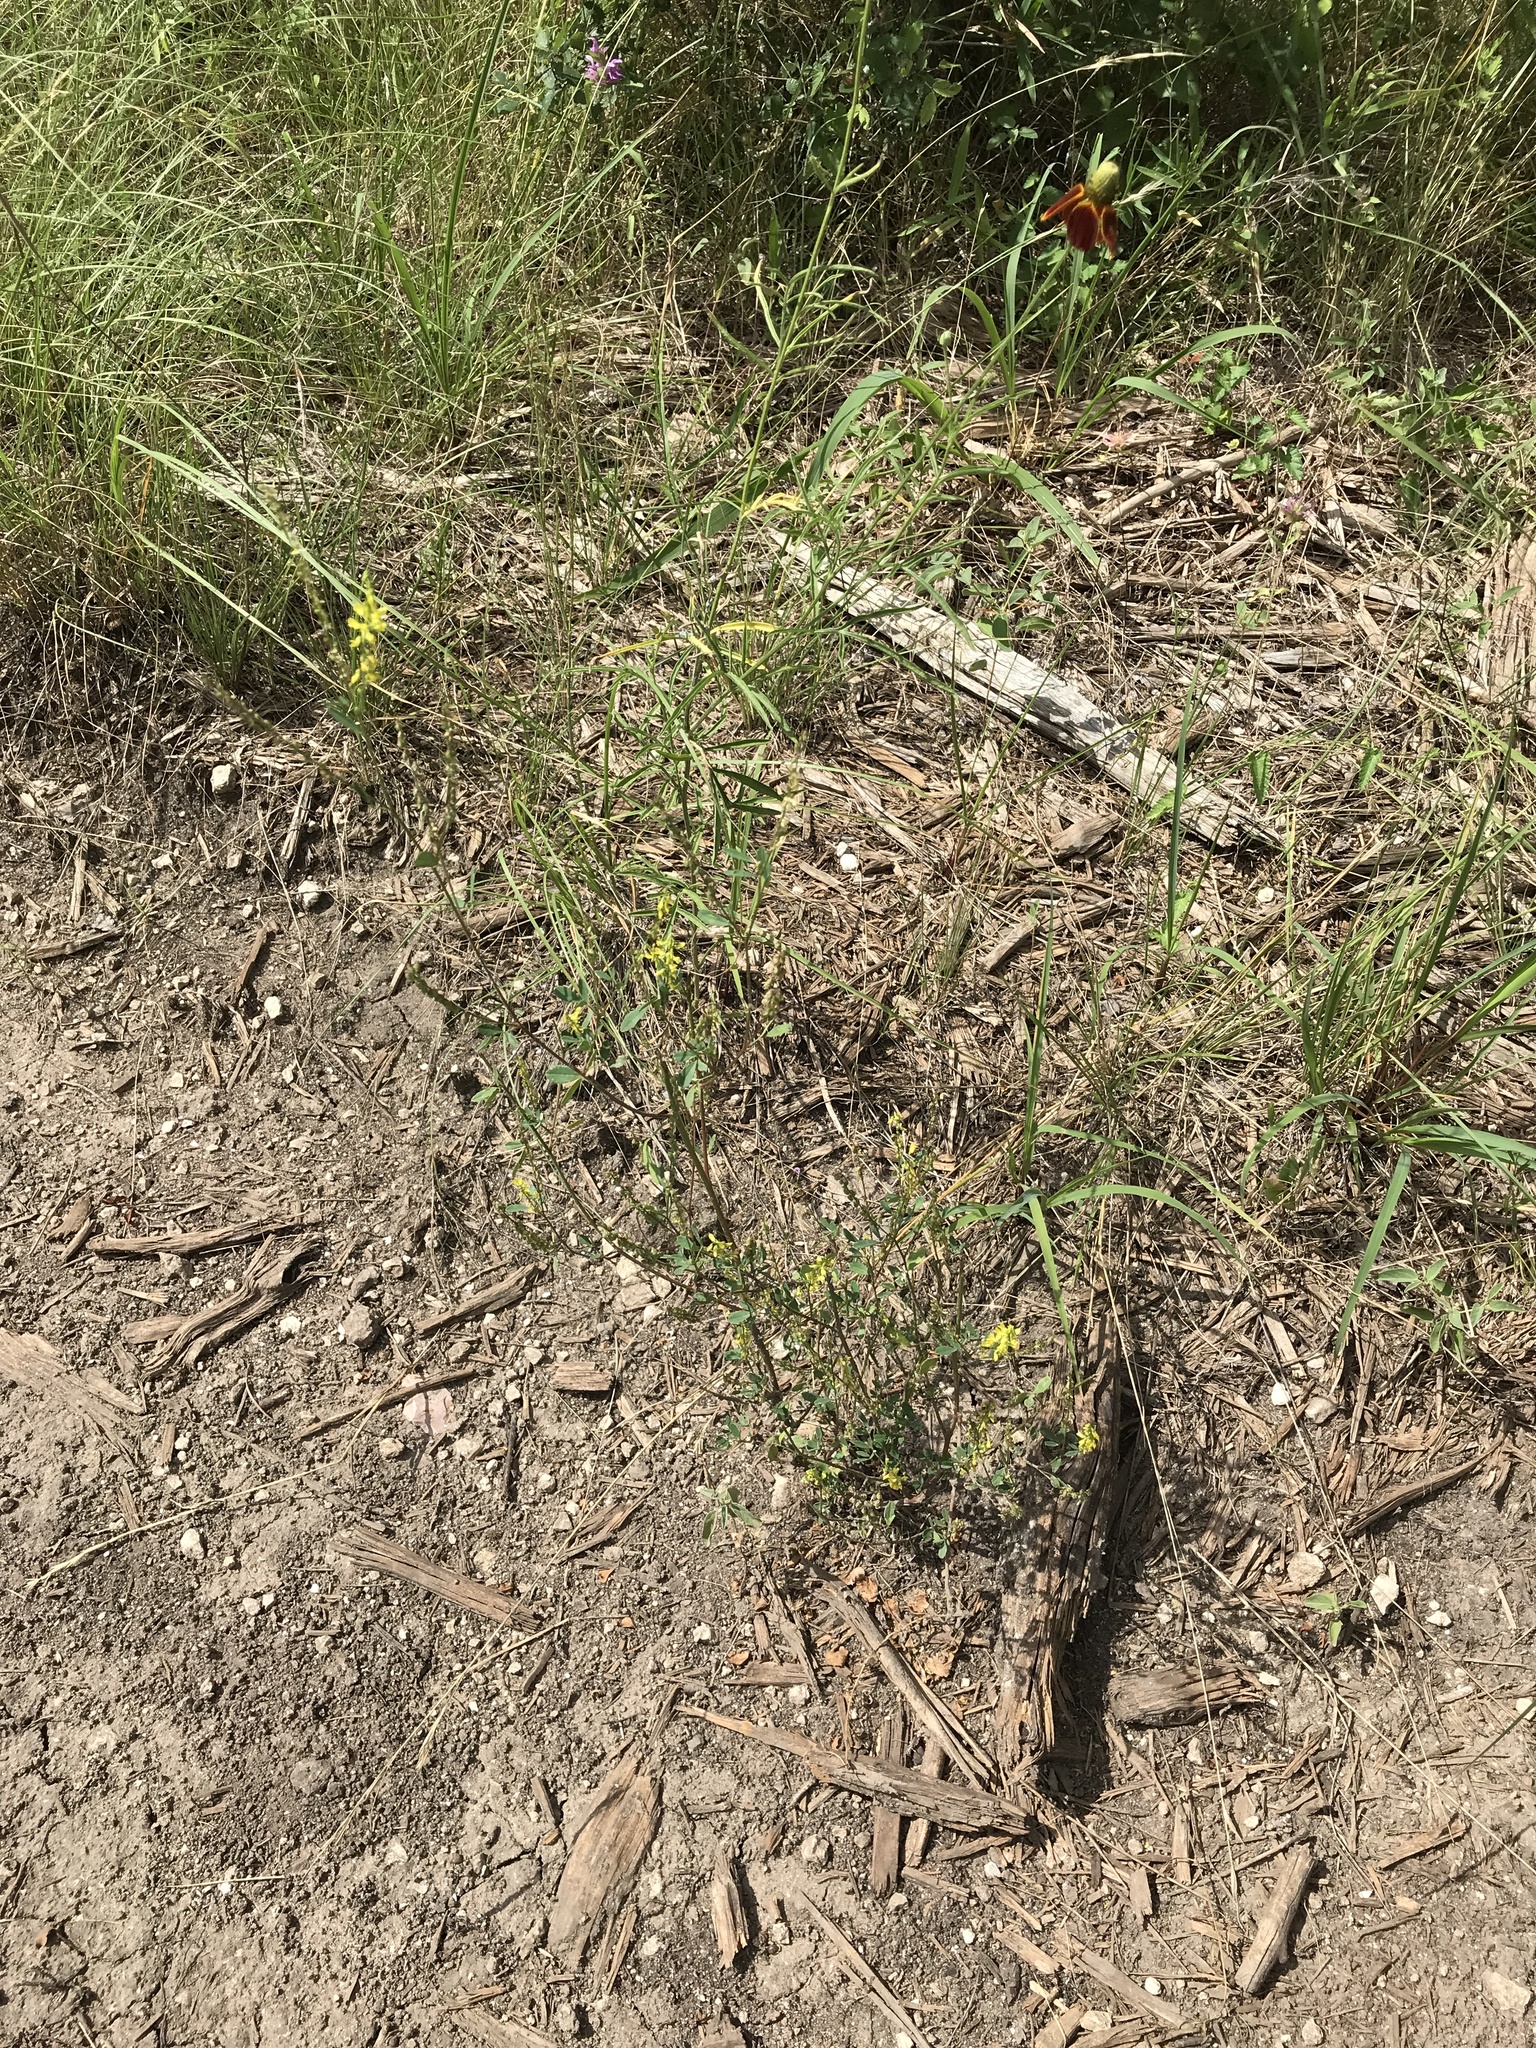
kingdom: Plantae
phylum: Tracheophyta
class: Magnoliopsida
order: Fabales
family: Fabaceae
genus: Melilotus
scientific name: Melilotus officinalis
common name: Sweetclover
